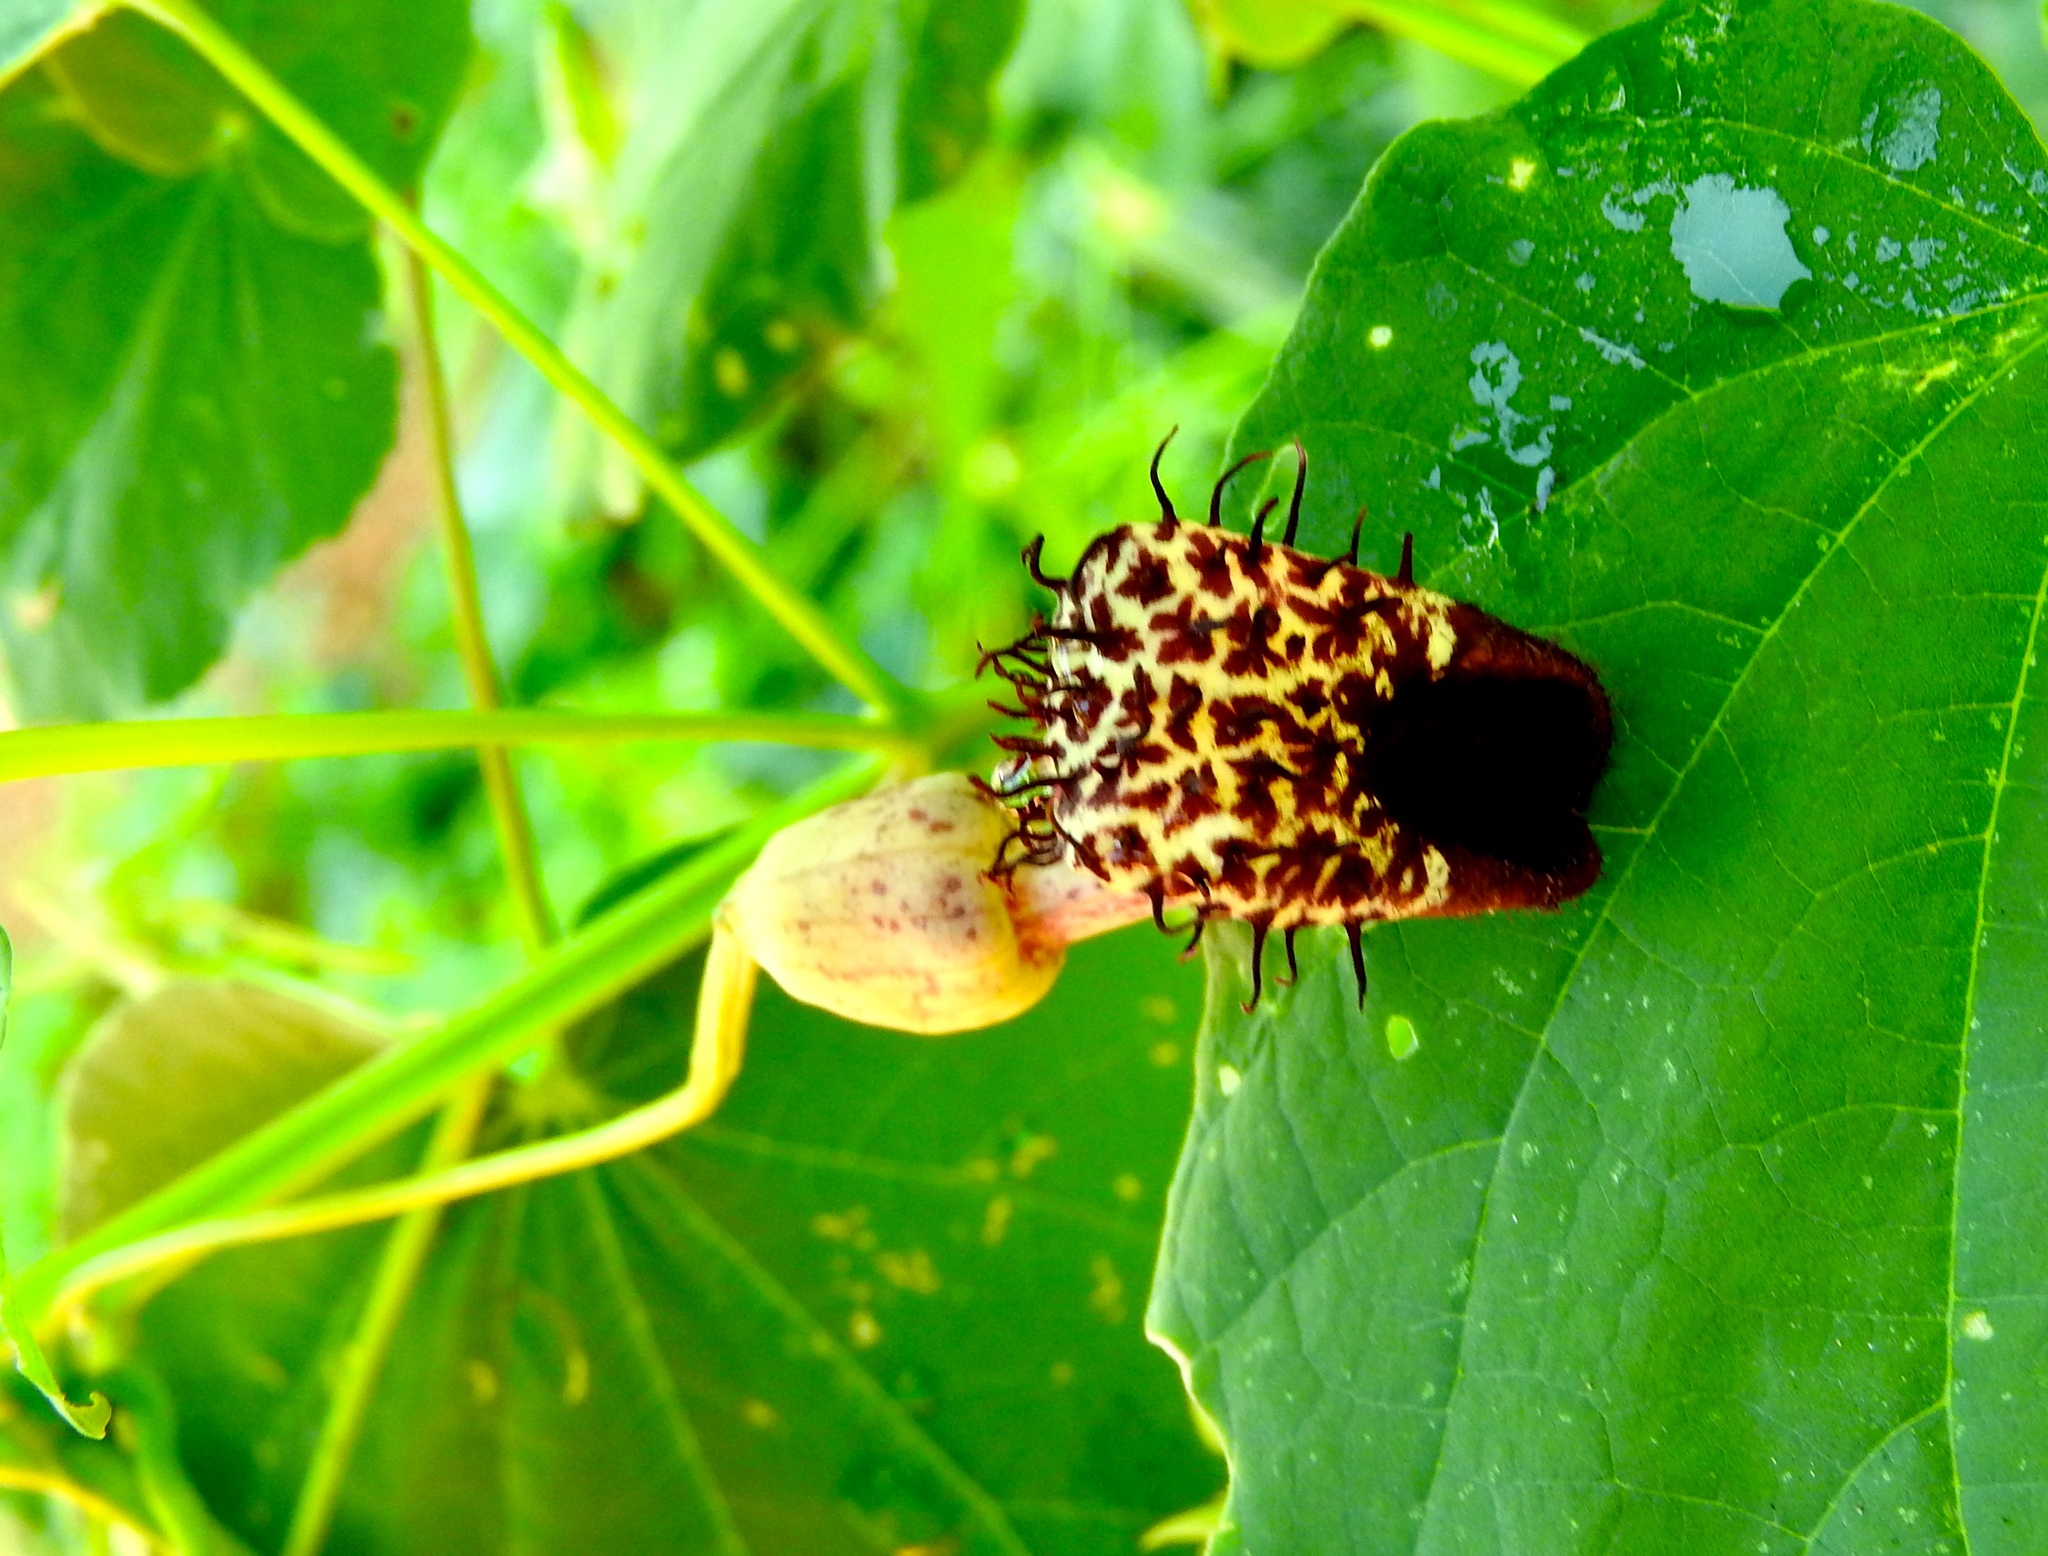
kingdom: Plantae
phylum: Tracheophyta
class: Magnoliopsida
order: Piperales
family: Aristolochiaceae
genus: Aristolochia
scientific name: Aristolochia taliscana
